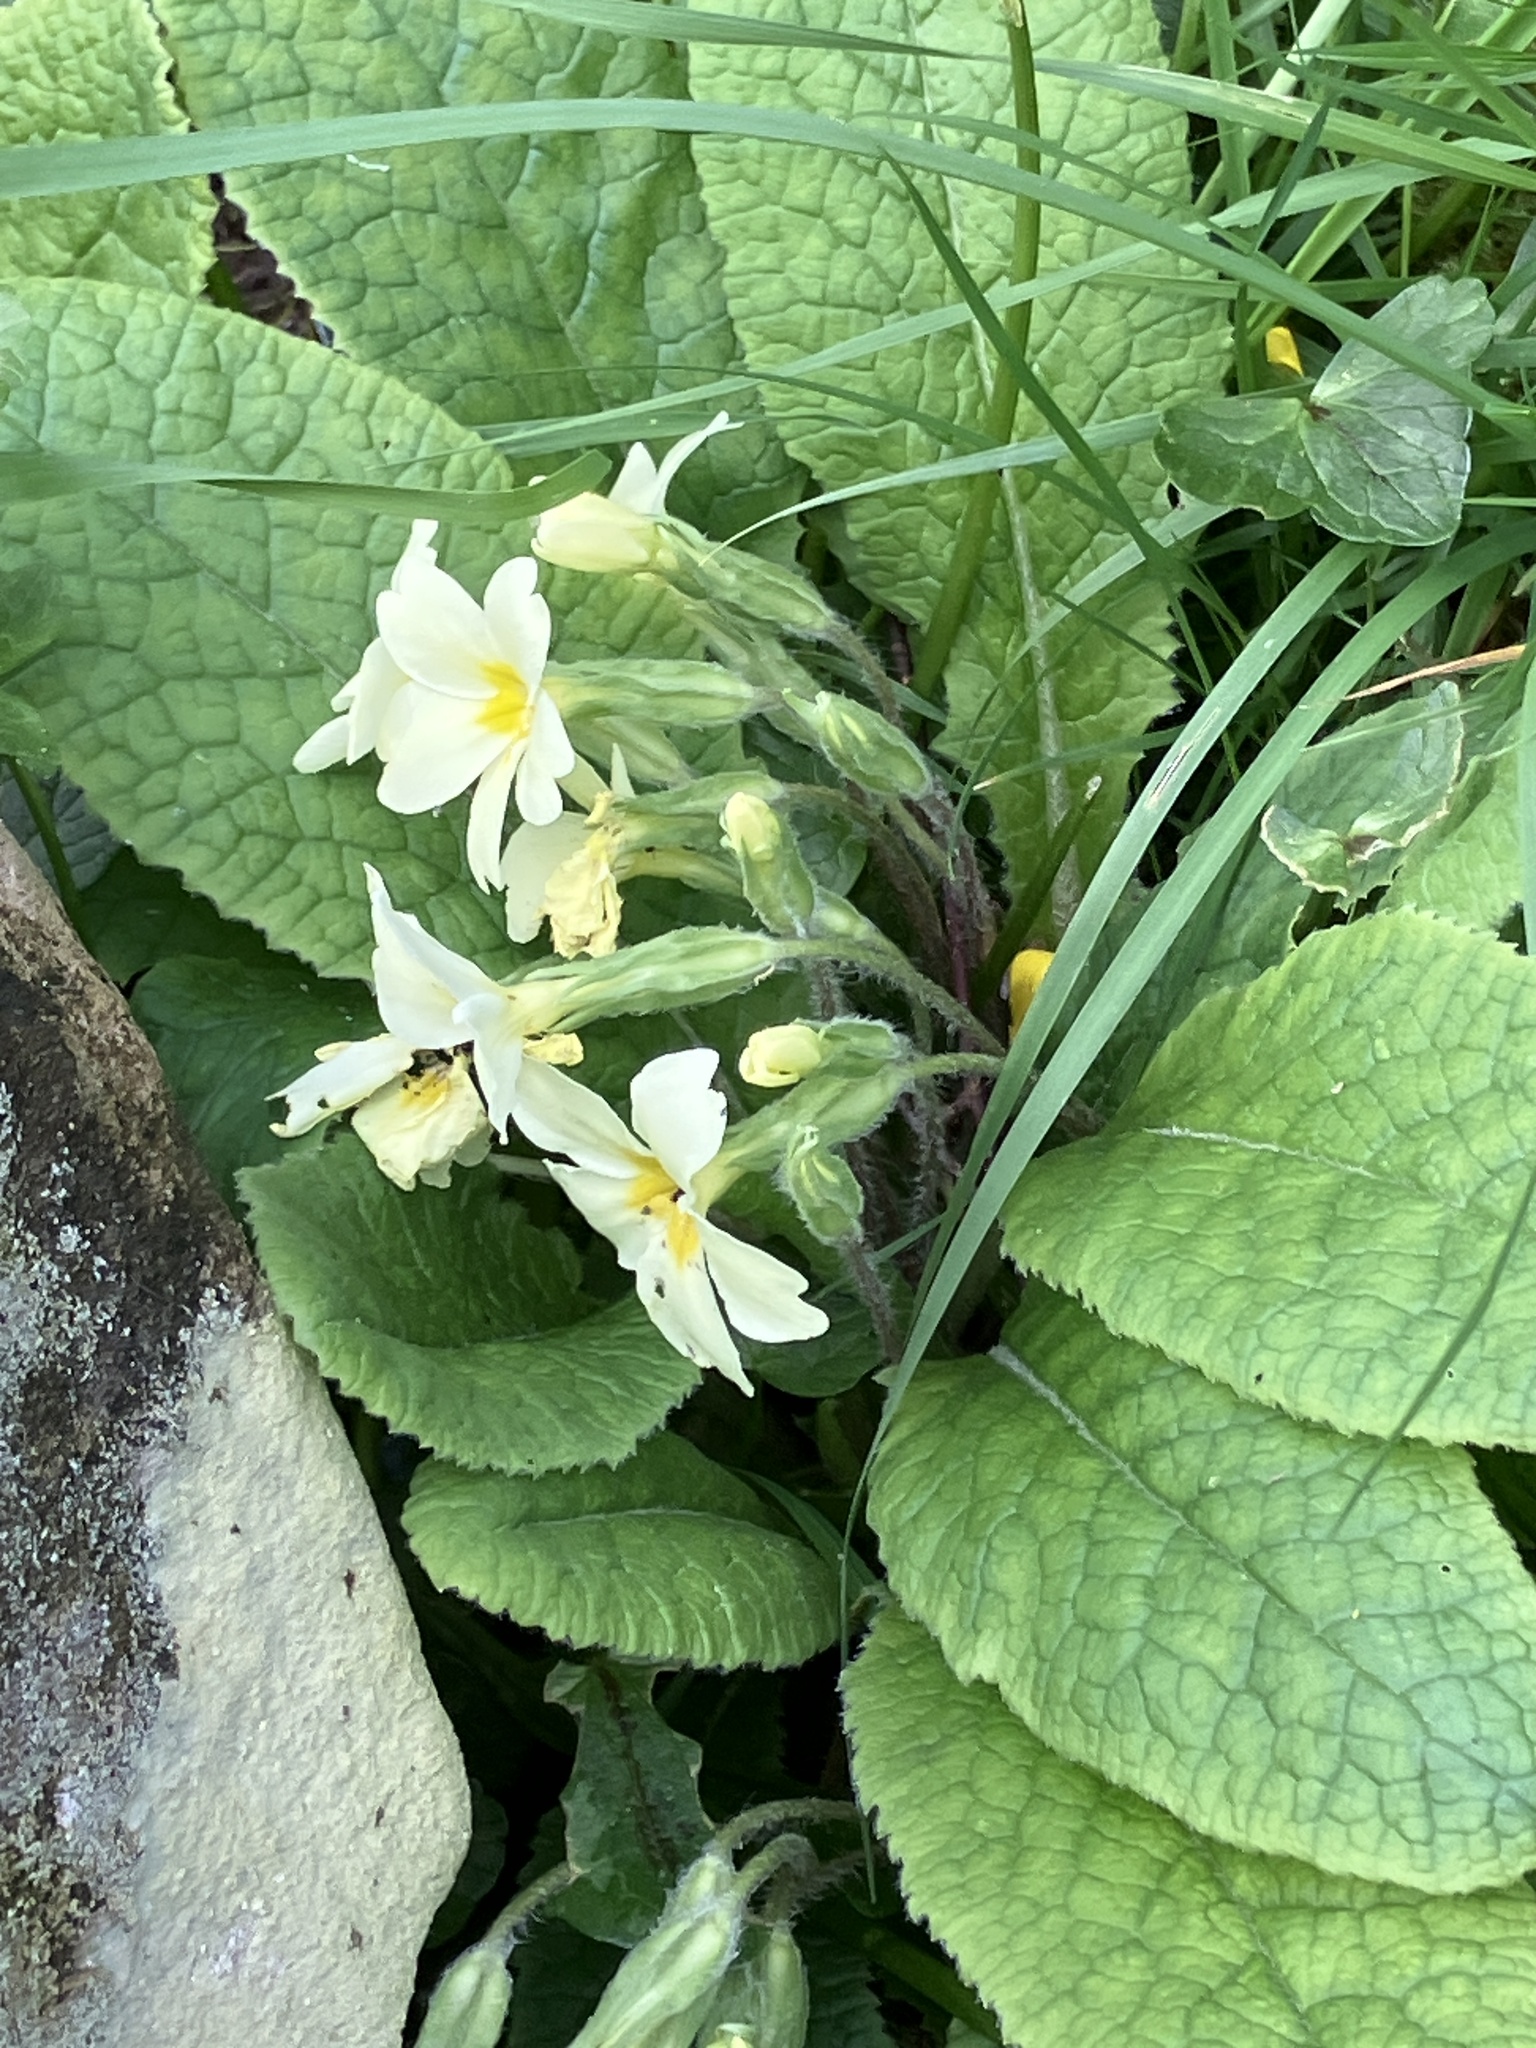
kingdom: Plantae
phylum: Tracheophyta
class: Magnoliopsida
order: Ericales
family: Primulaceae
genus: Primula
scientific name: Primula vulgaris
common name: Primrose
